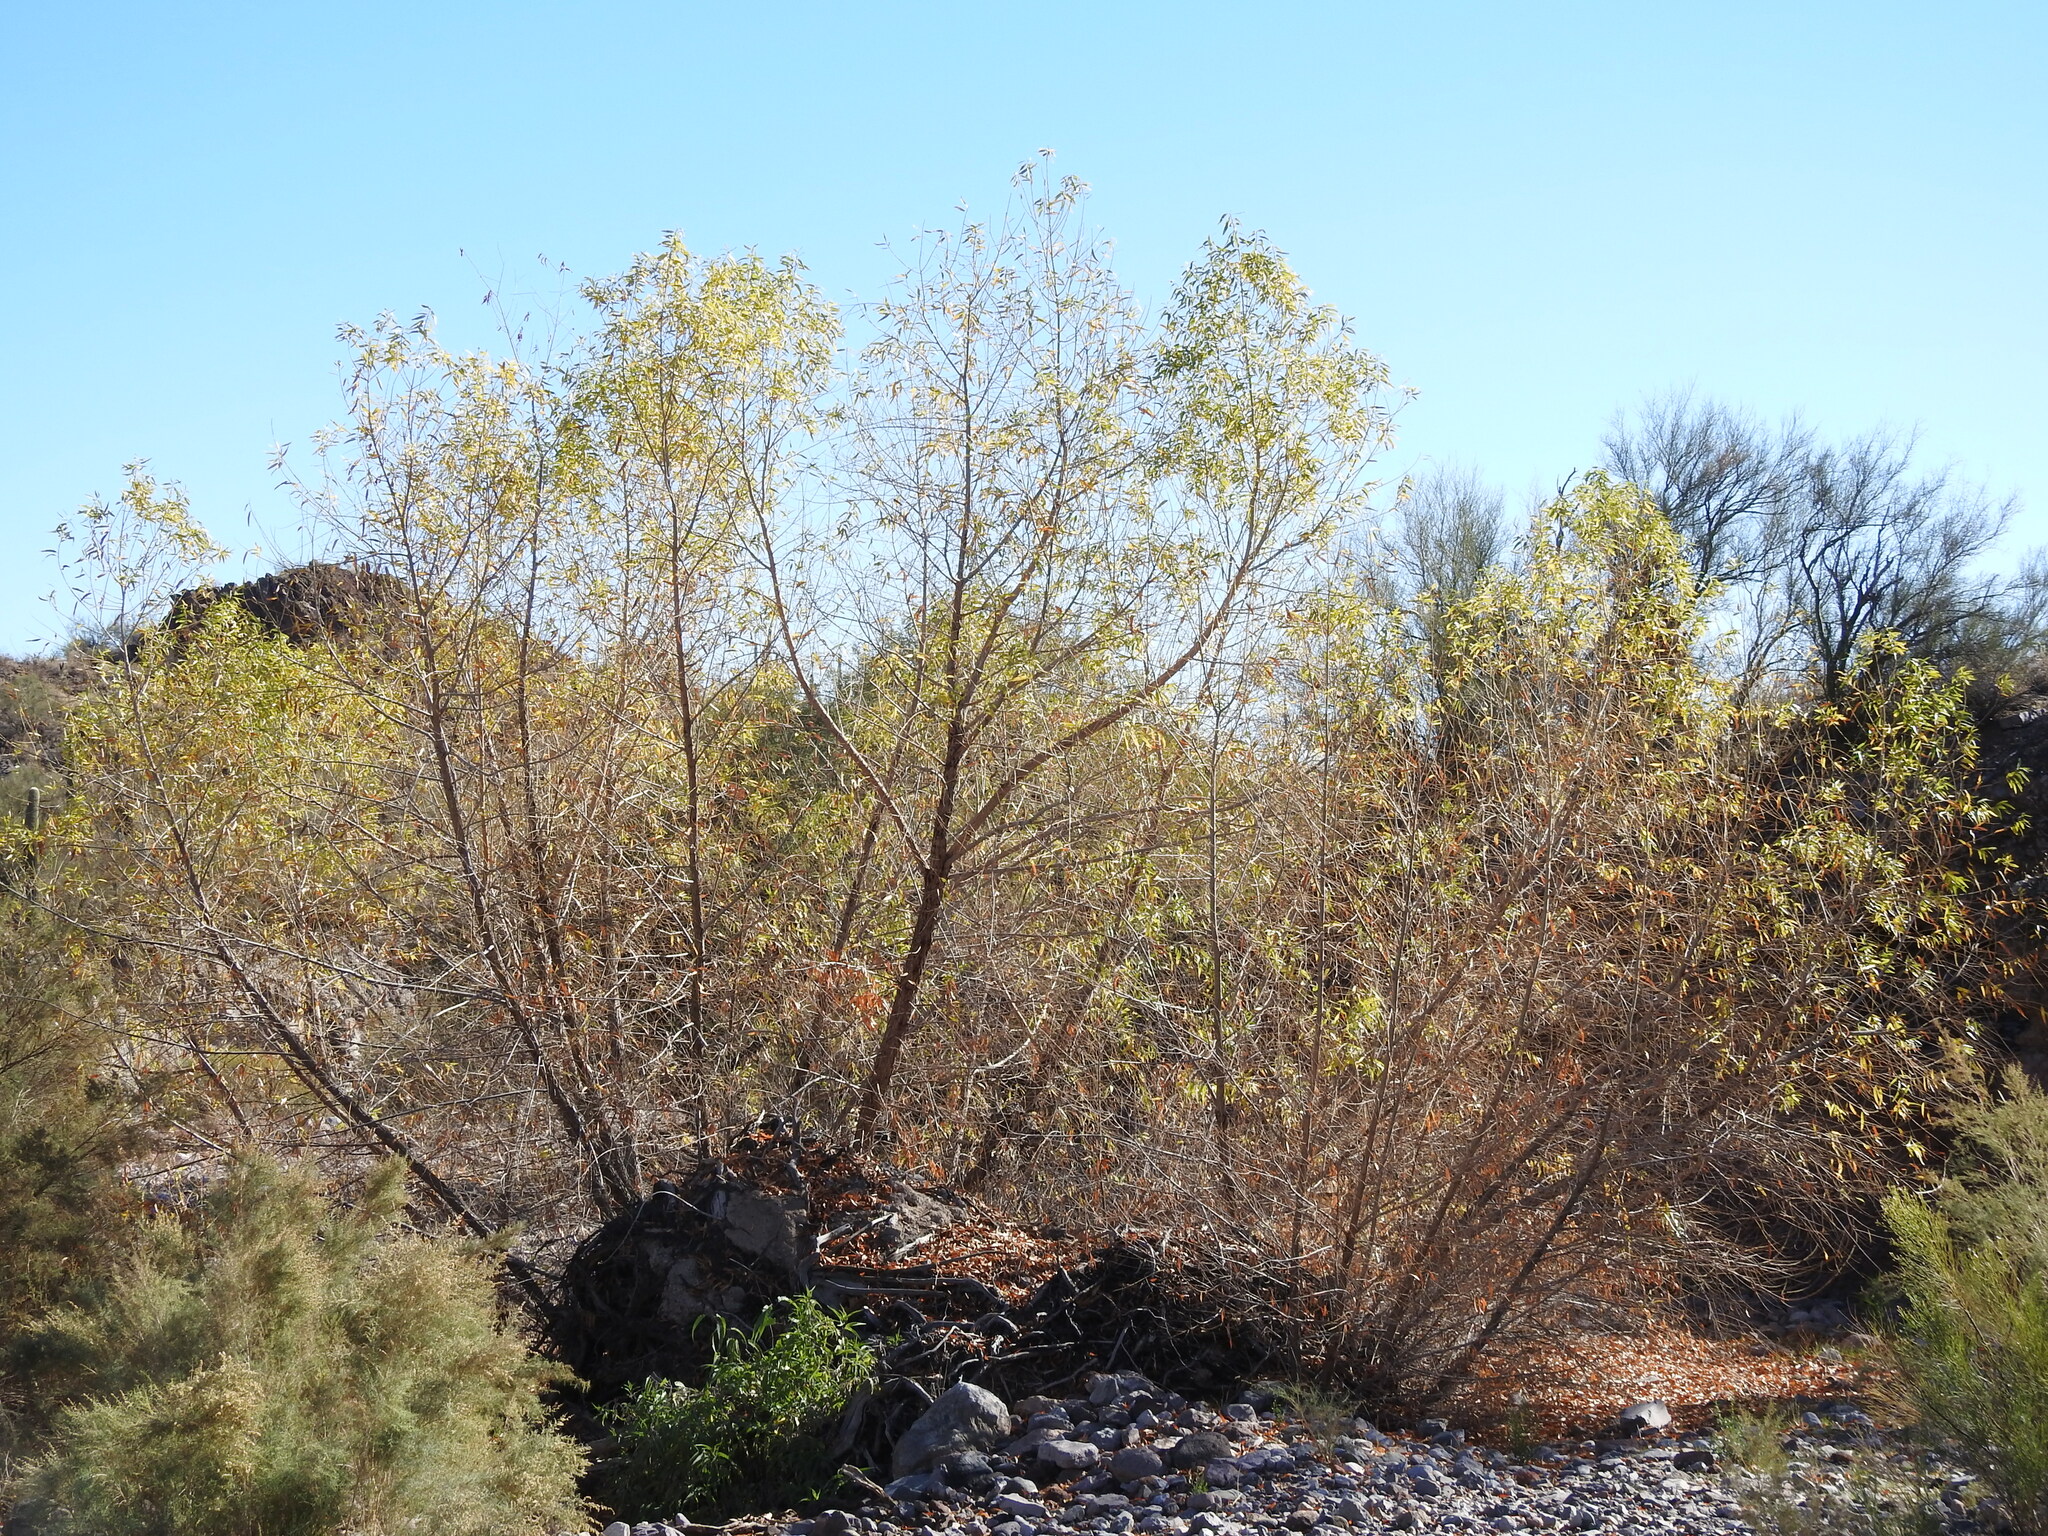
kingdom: Plantae
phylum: Tracheophyta
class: Magnoliopsida
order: Malpighiales
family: Salicaceae
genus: Salix
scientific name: Salix gooddingii
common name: Goodding's willow
